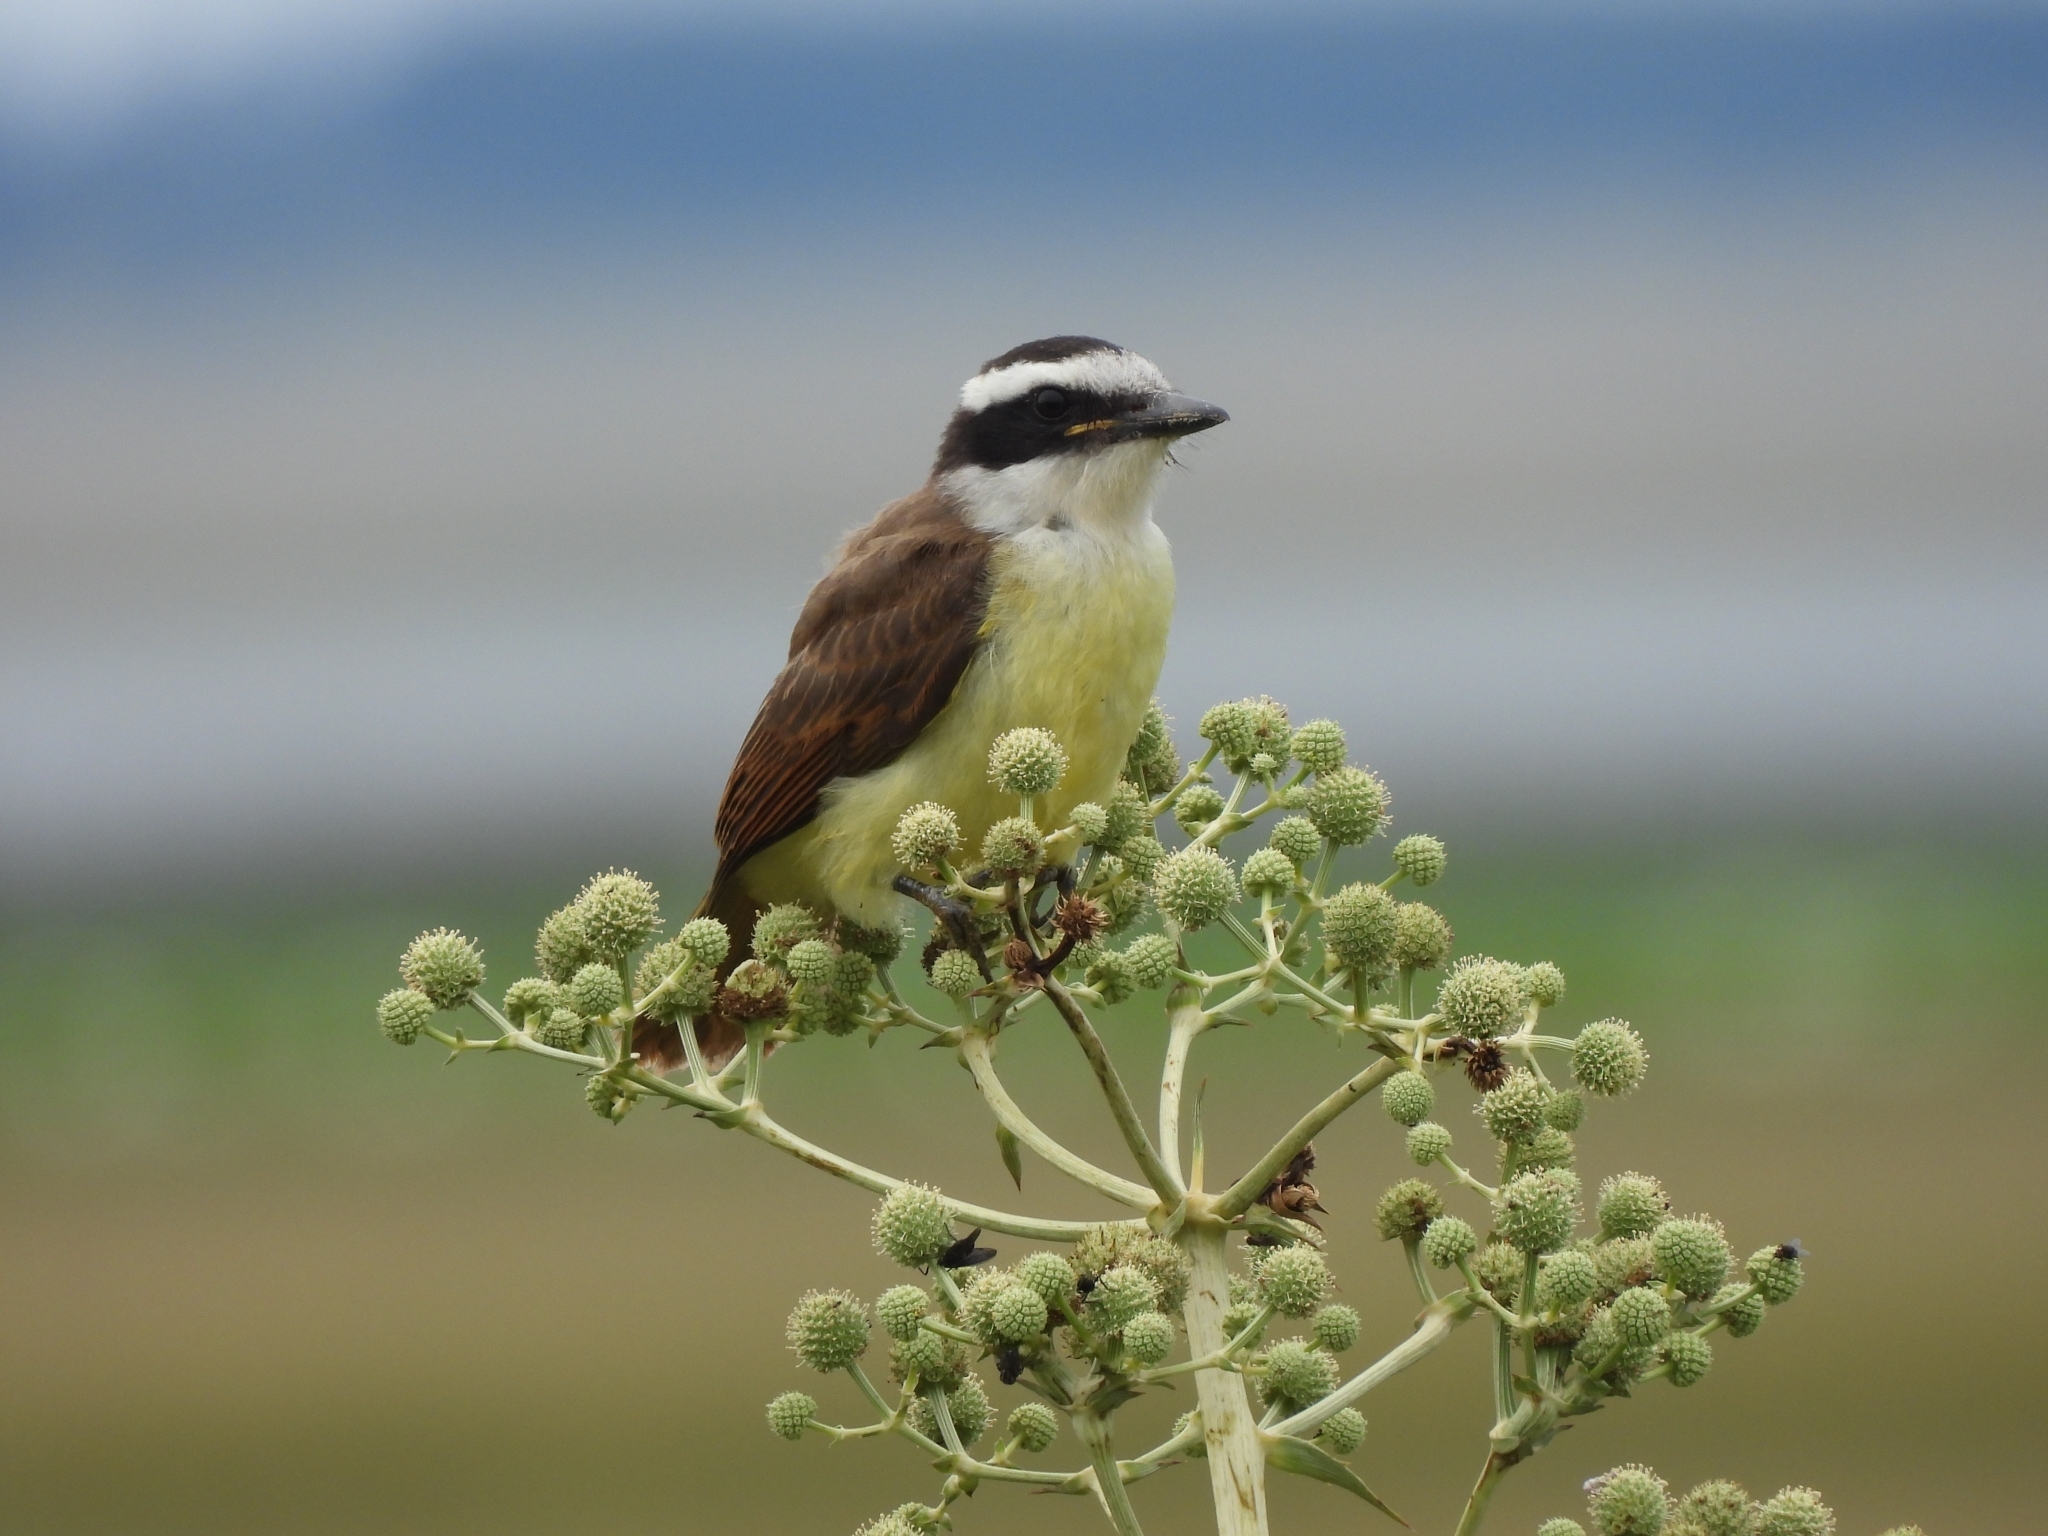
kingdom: Animalia
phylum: Chordata
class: Aves
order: Passeriformes
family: Tyrannidae
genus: Pitangus
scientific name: Pitangus sulphuratus
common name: Great kiskadee
